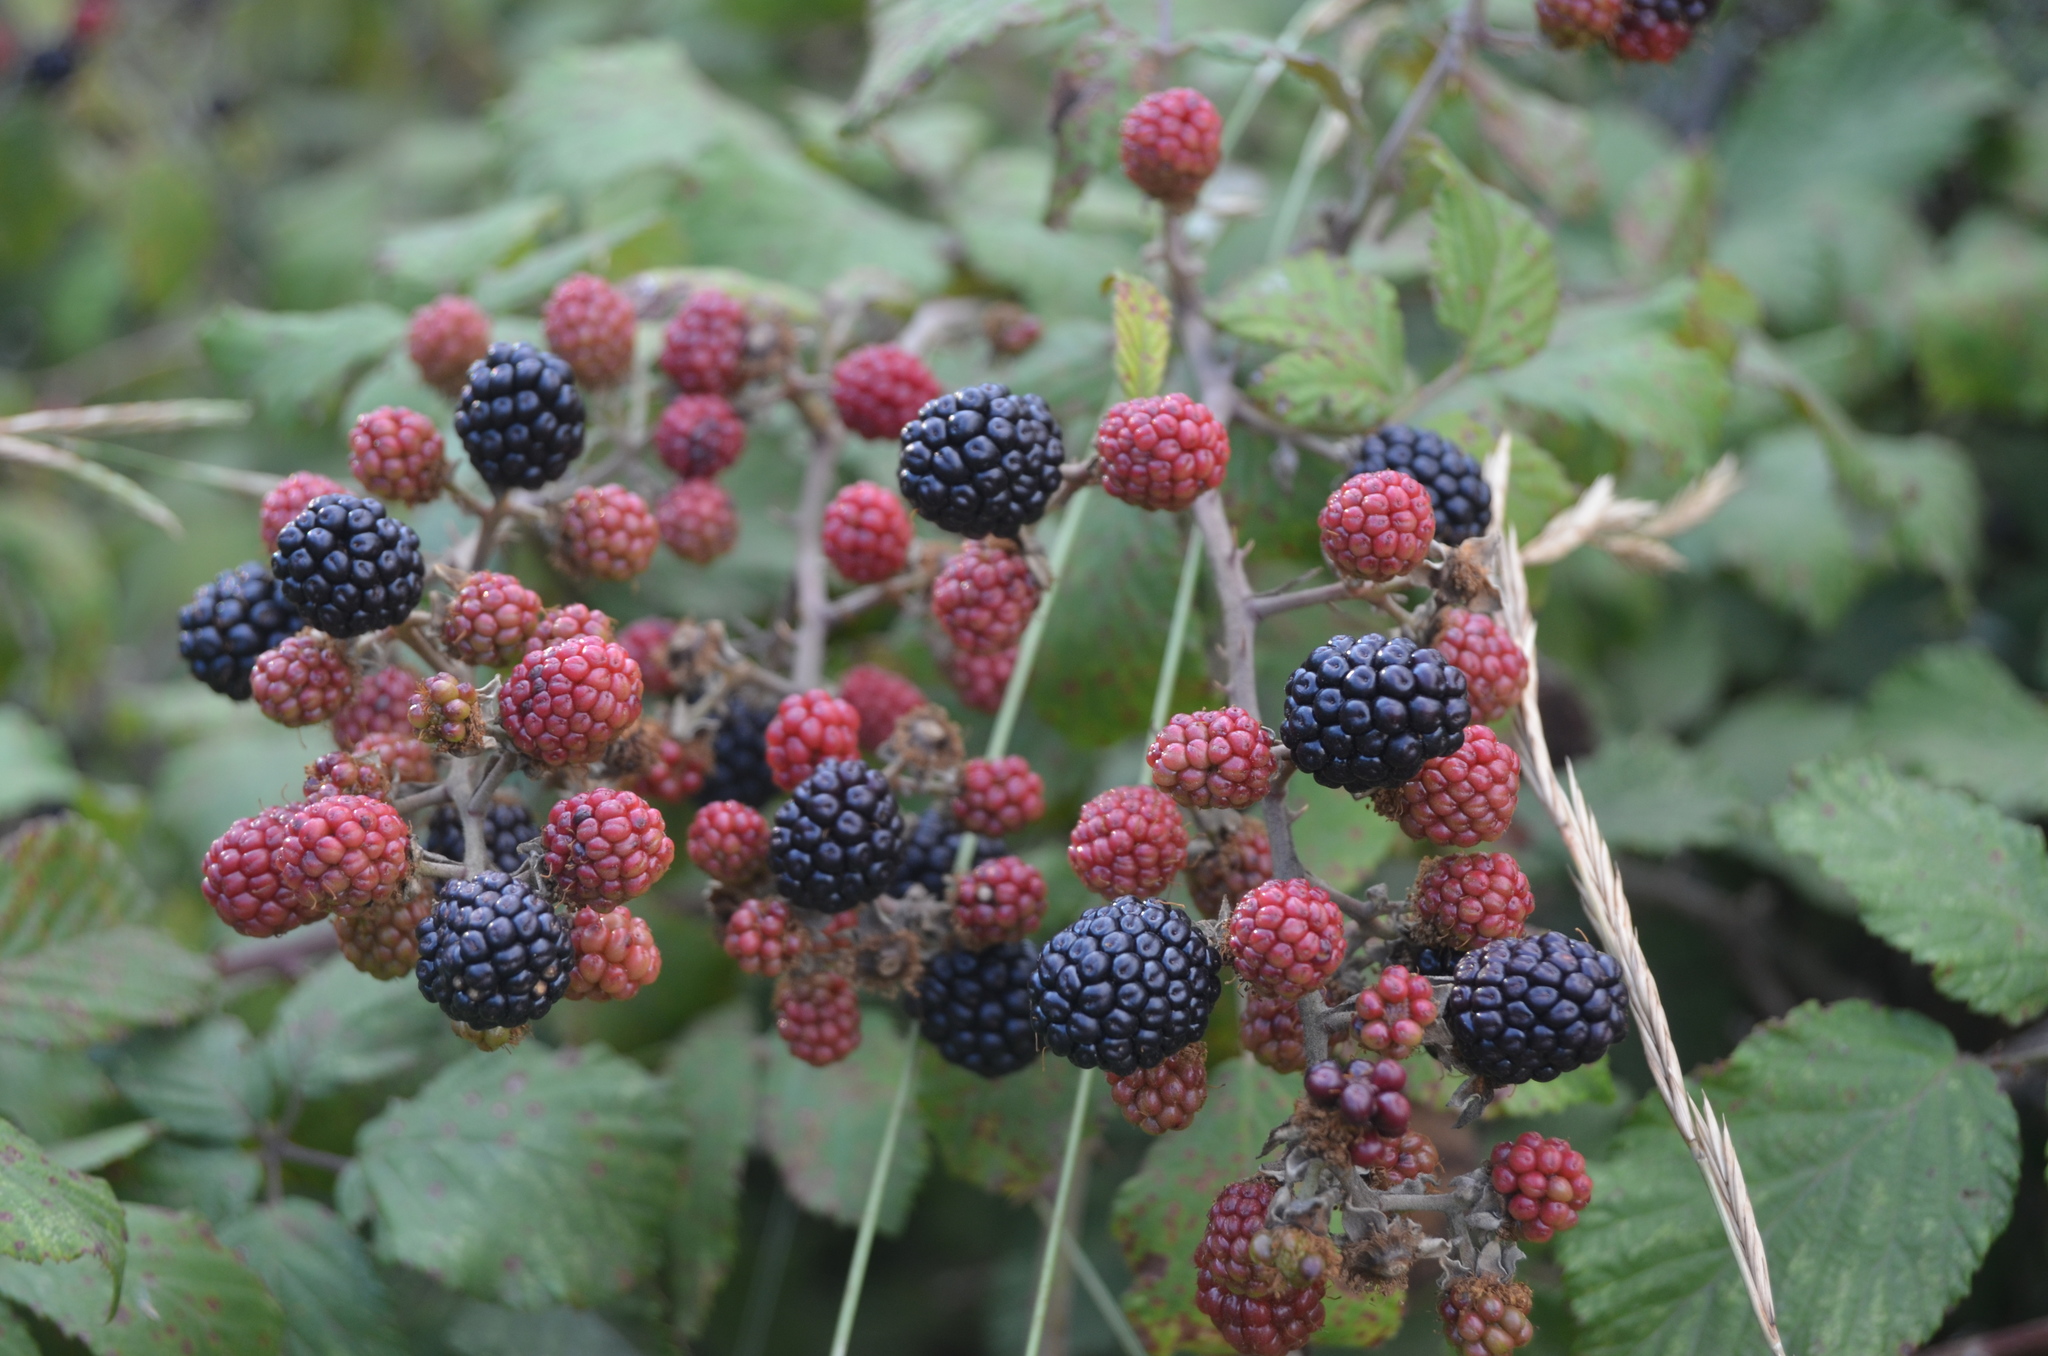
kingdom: Plantae
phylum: Tracheophyta
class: Magnoliopsida
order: Rosales
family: Rosaceae
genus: Rubus
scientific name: Rubus ulmifolius
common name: Elmleaf blackberry
